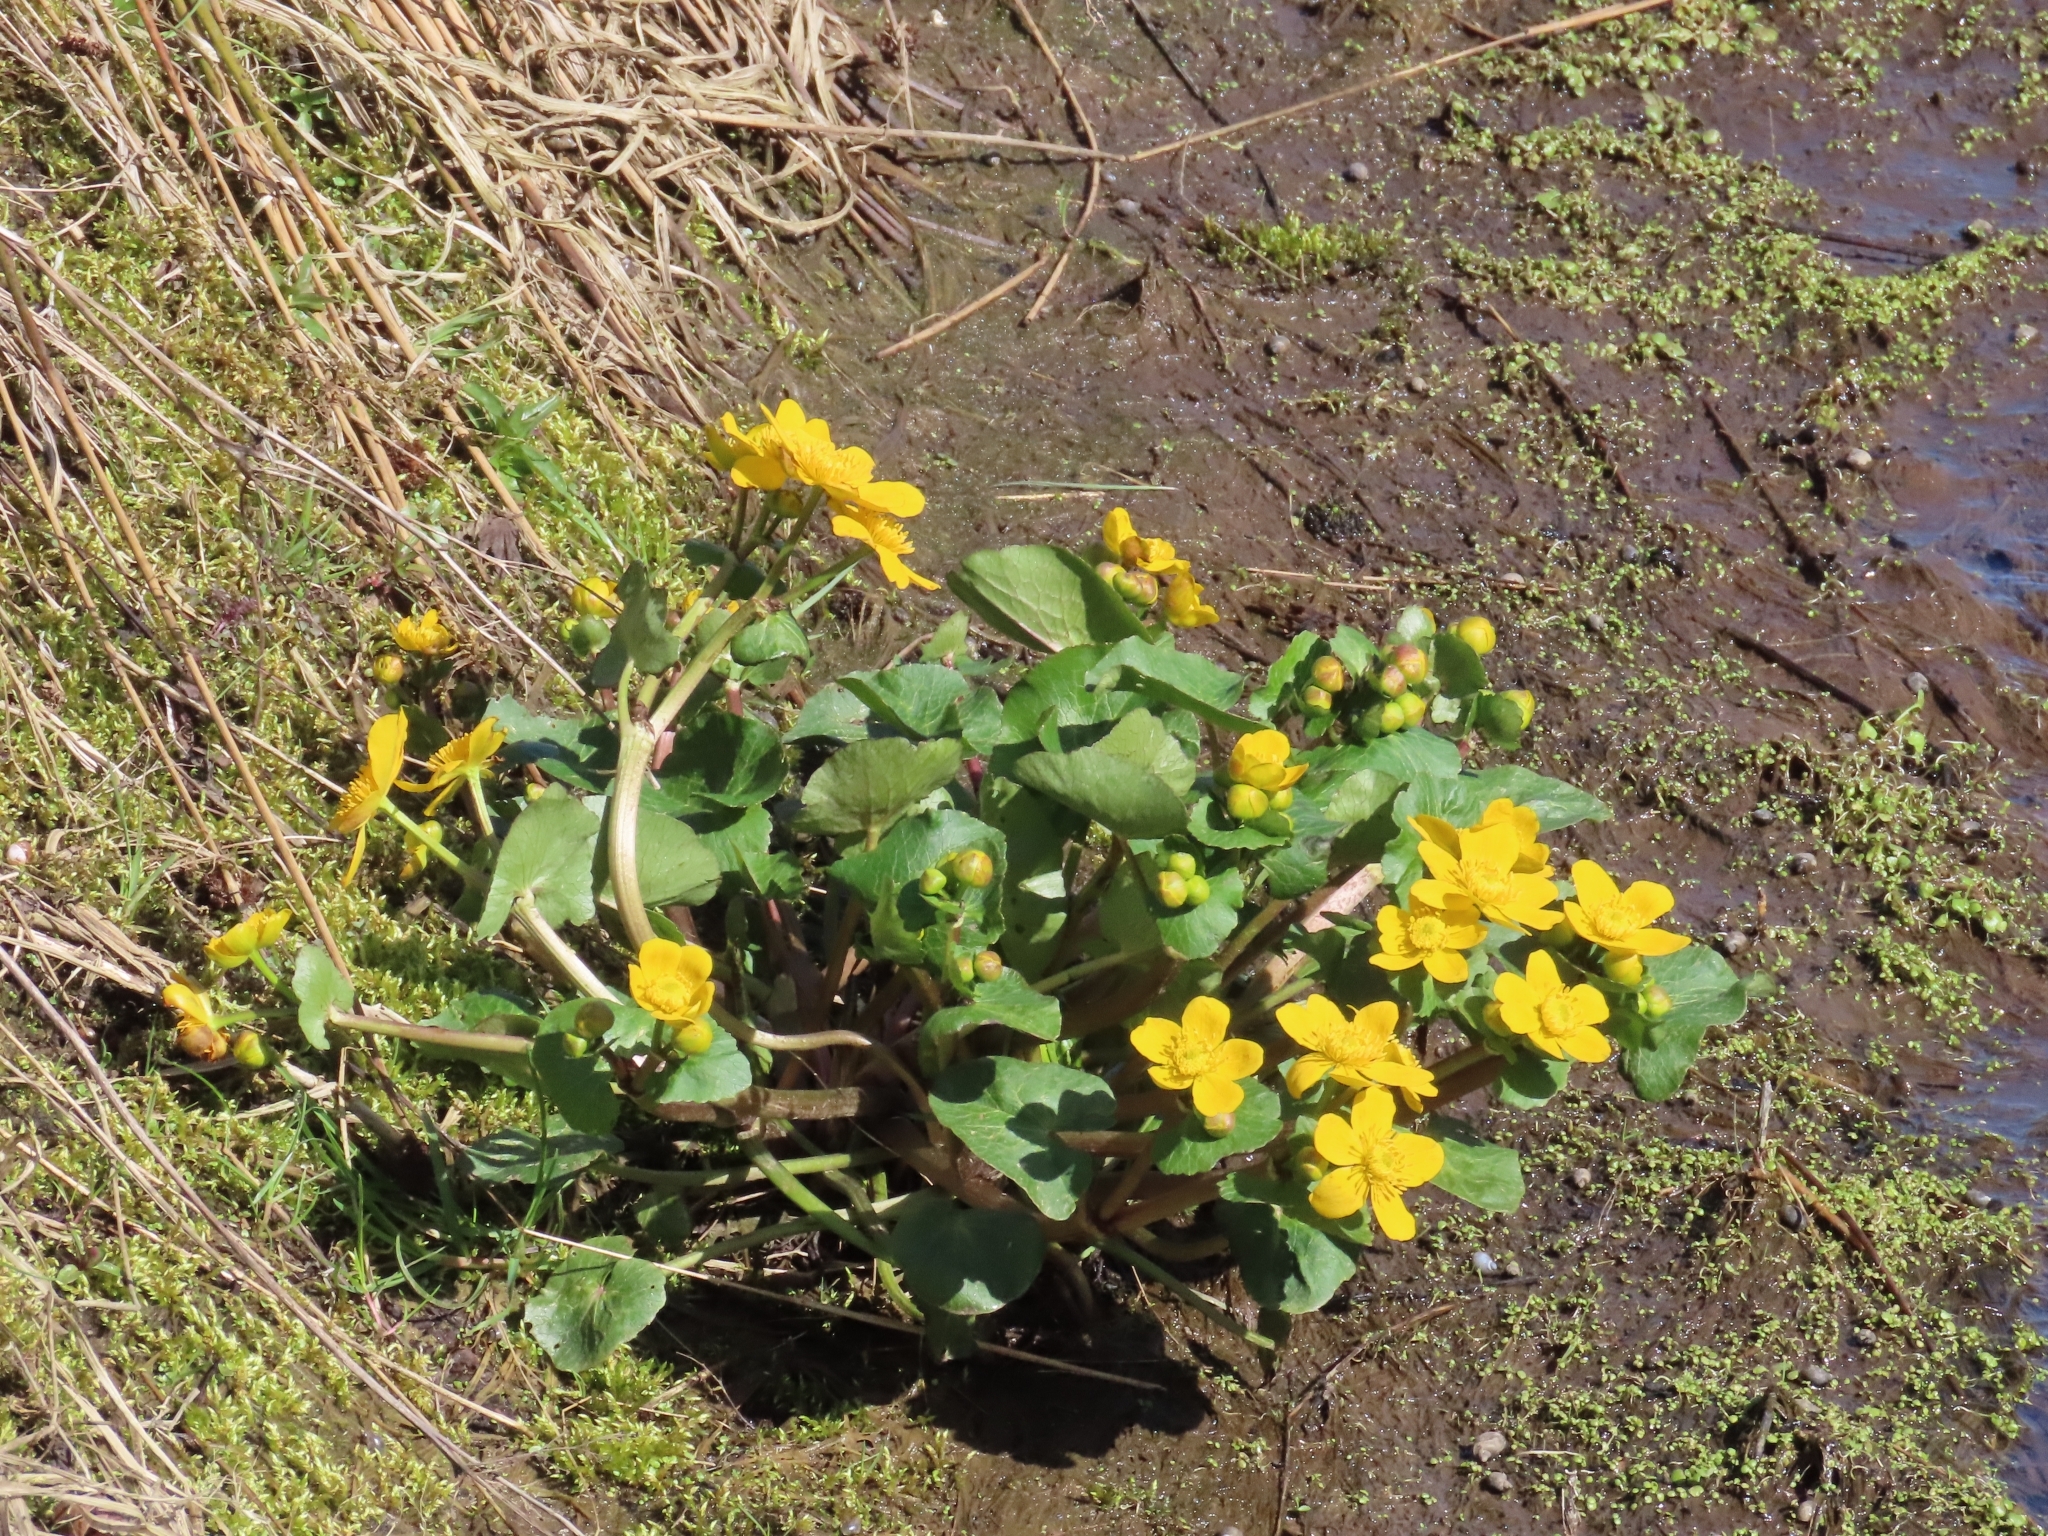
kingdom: Plantae
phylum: Tracheophyta
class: Magnoliopsida
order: Ranunculales
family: Ranunculaceae
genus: Caltha
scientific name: Caltha palustris
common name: Marsh marigold
